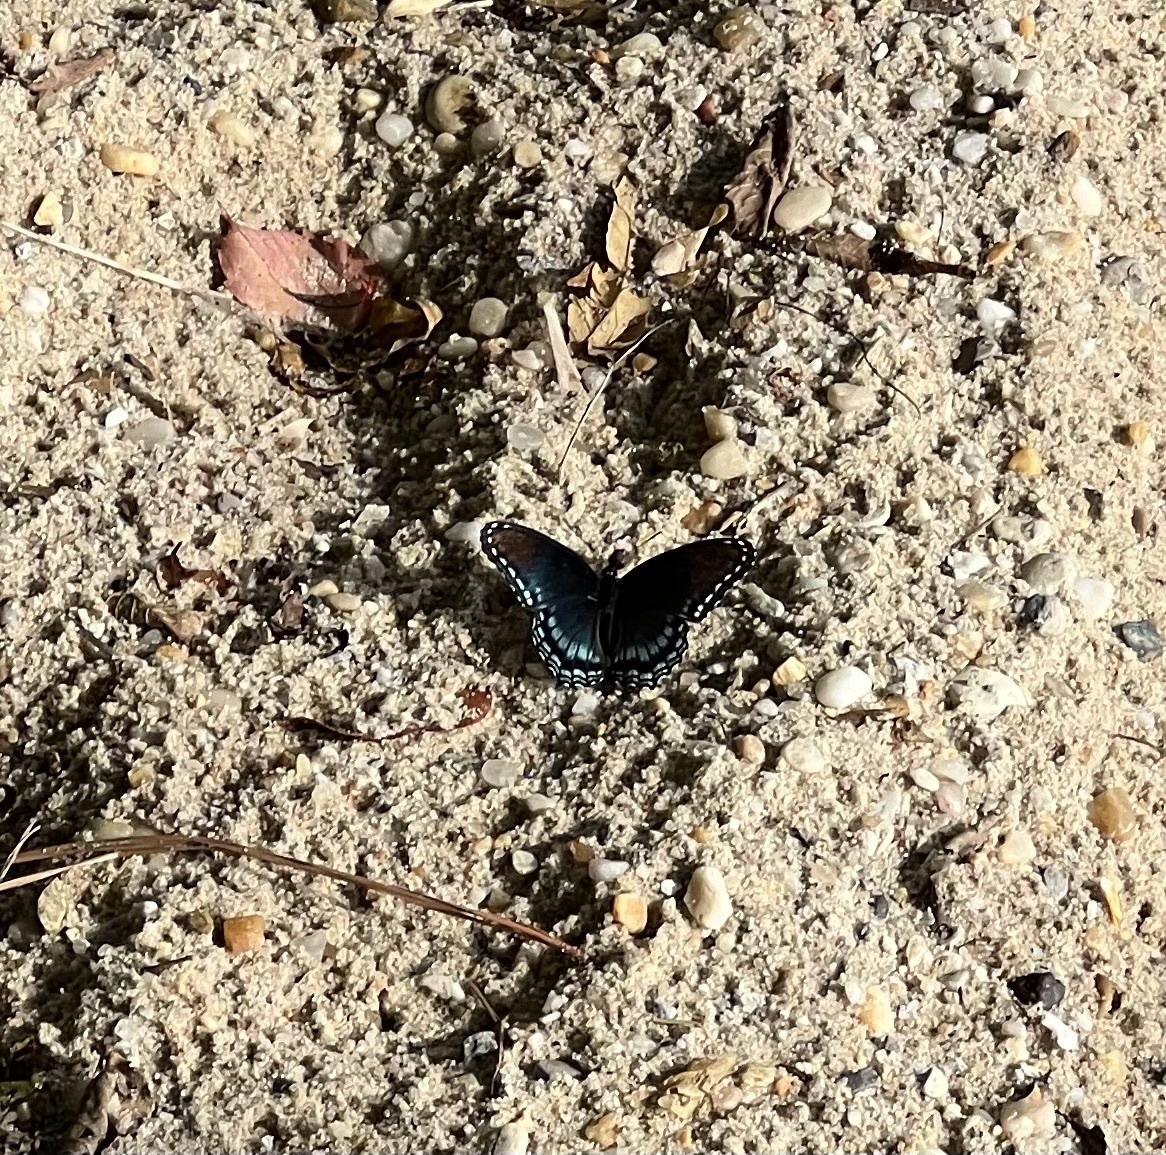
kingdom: Animalia
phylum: Arthropoda
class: Insecta
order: Lepidoptera
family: Nymphalidae
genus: Limenitis
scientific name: Limenitis astyanax
